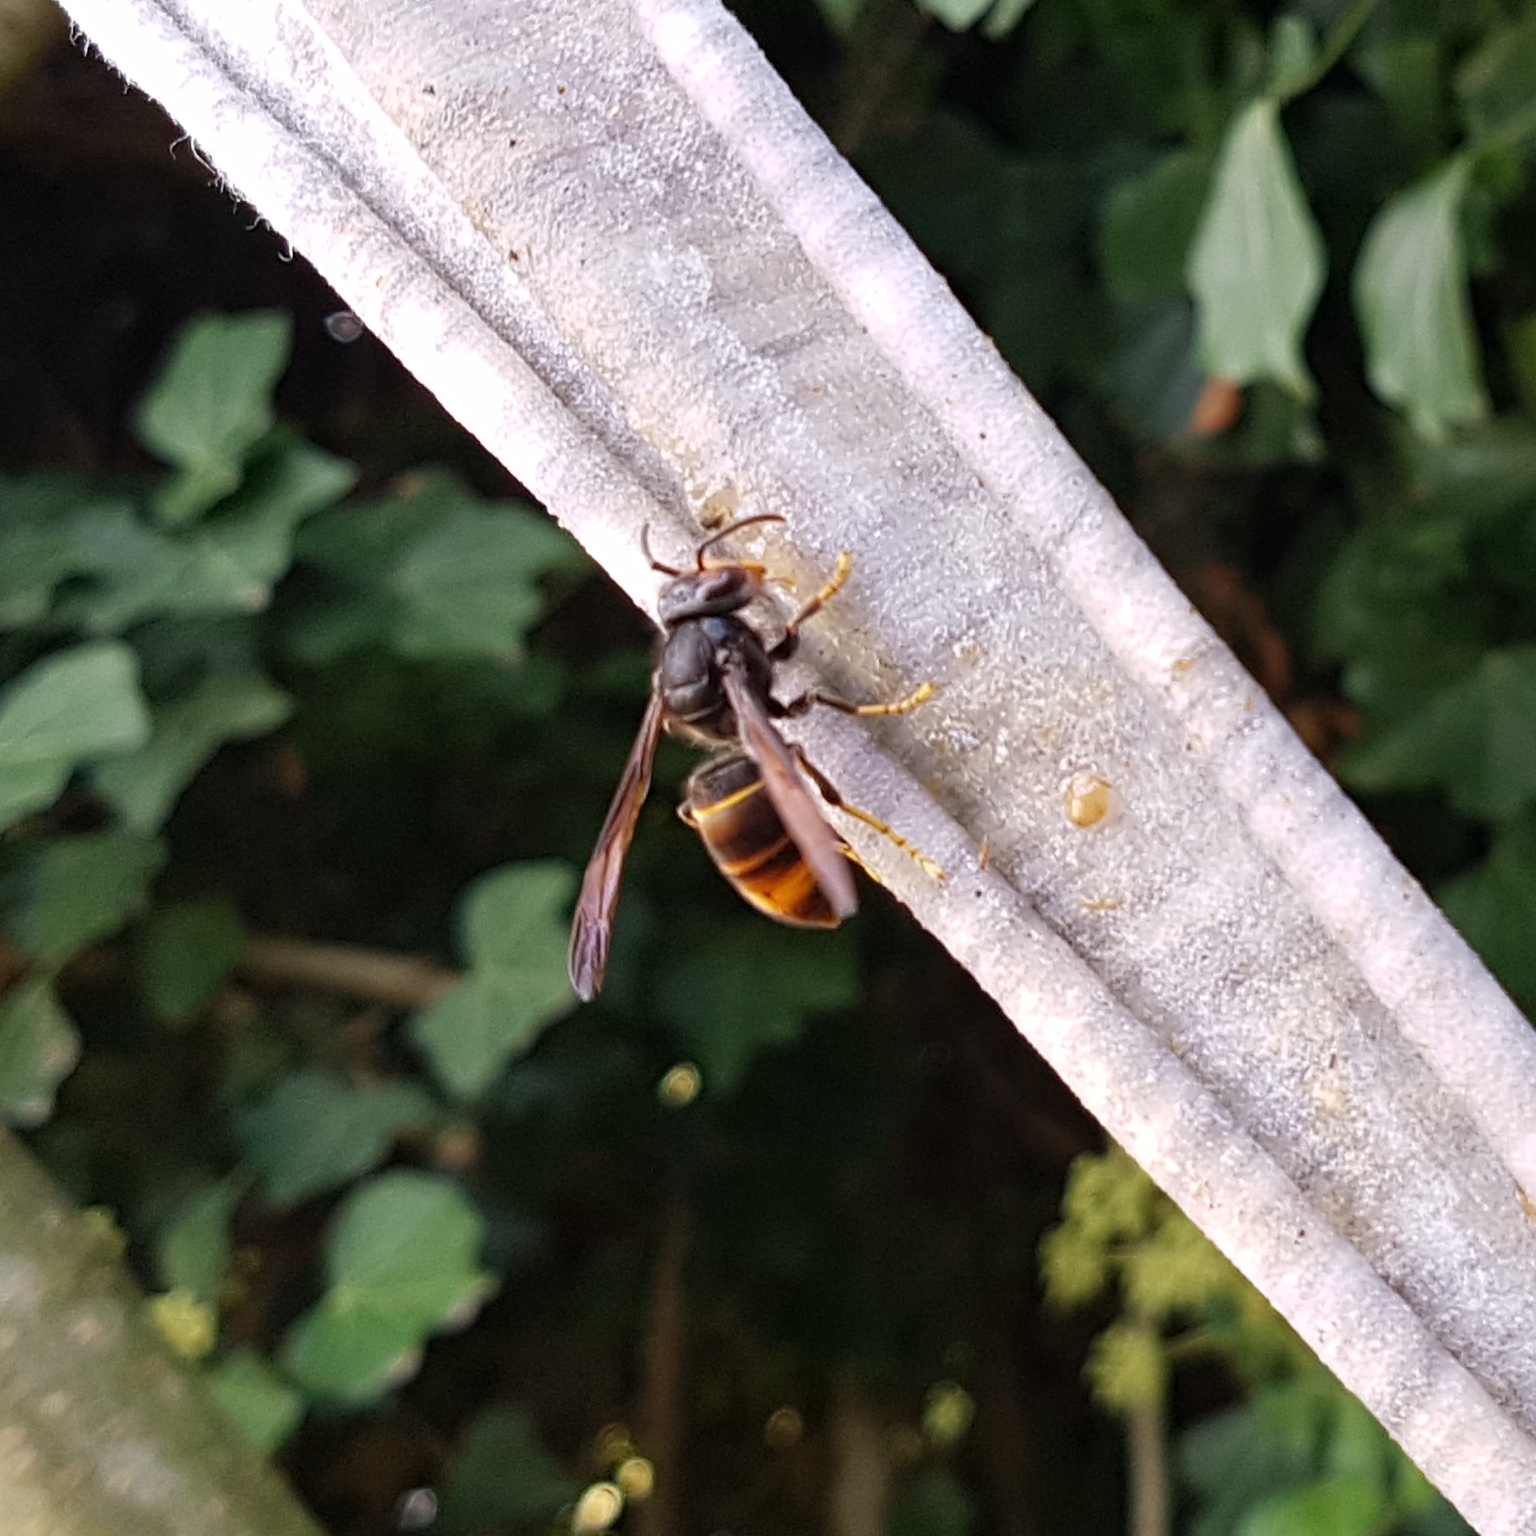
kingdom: Animalia
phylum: Arthropoda
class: Insecta
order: Hymenoptera
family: Vespidae
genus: Vespa
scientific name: Vespa velutina
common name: Asian hornet
